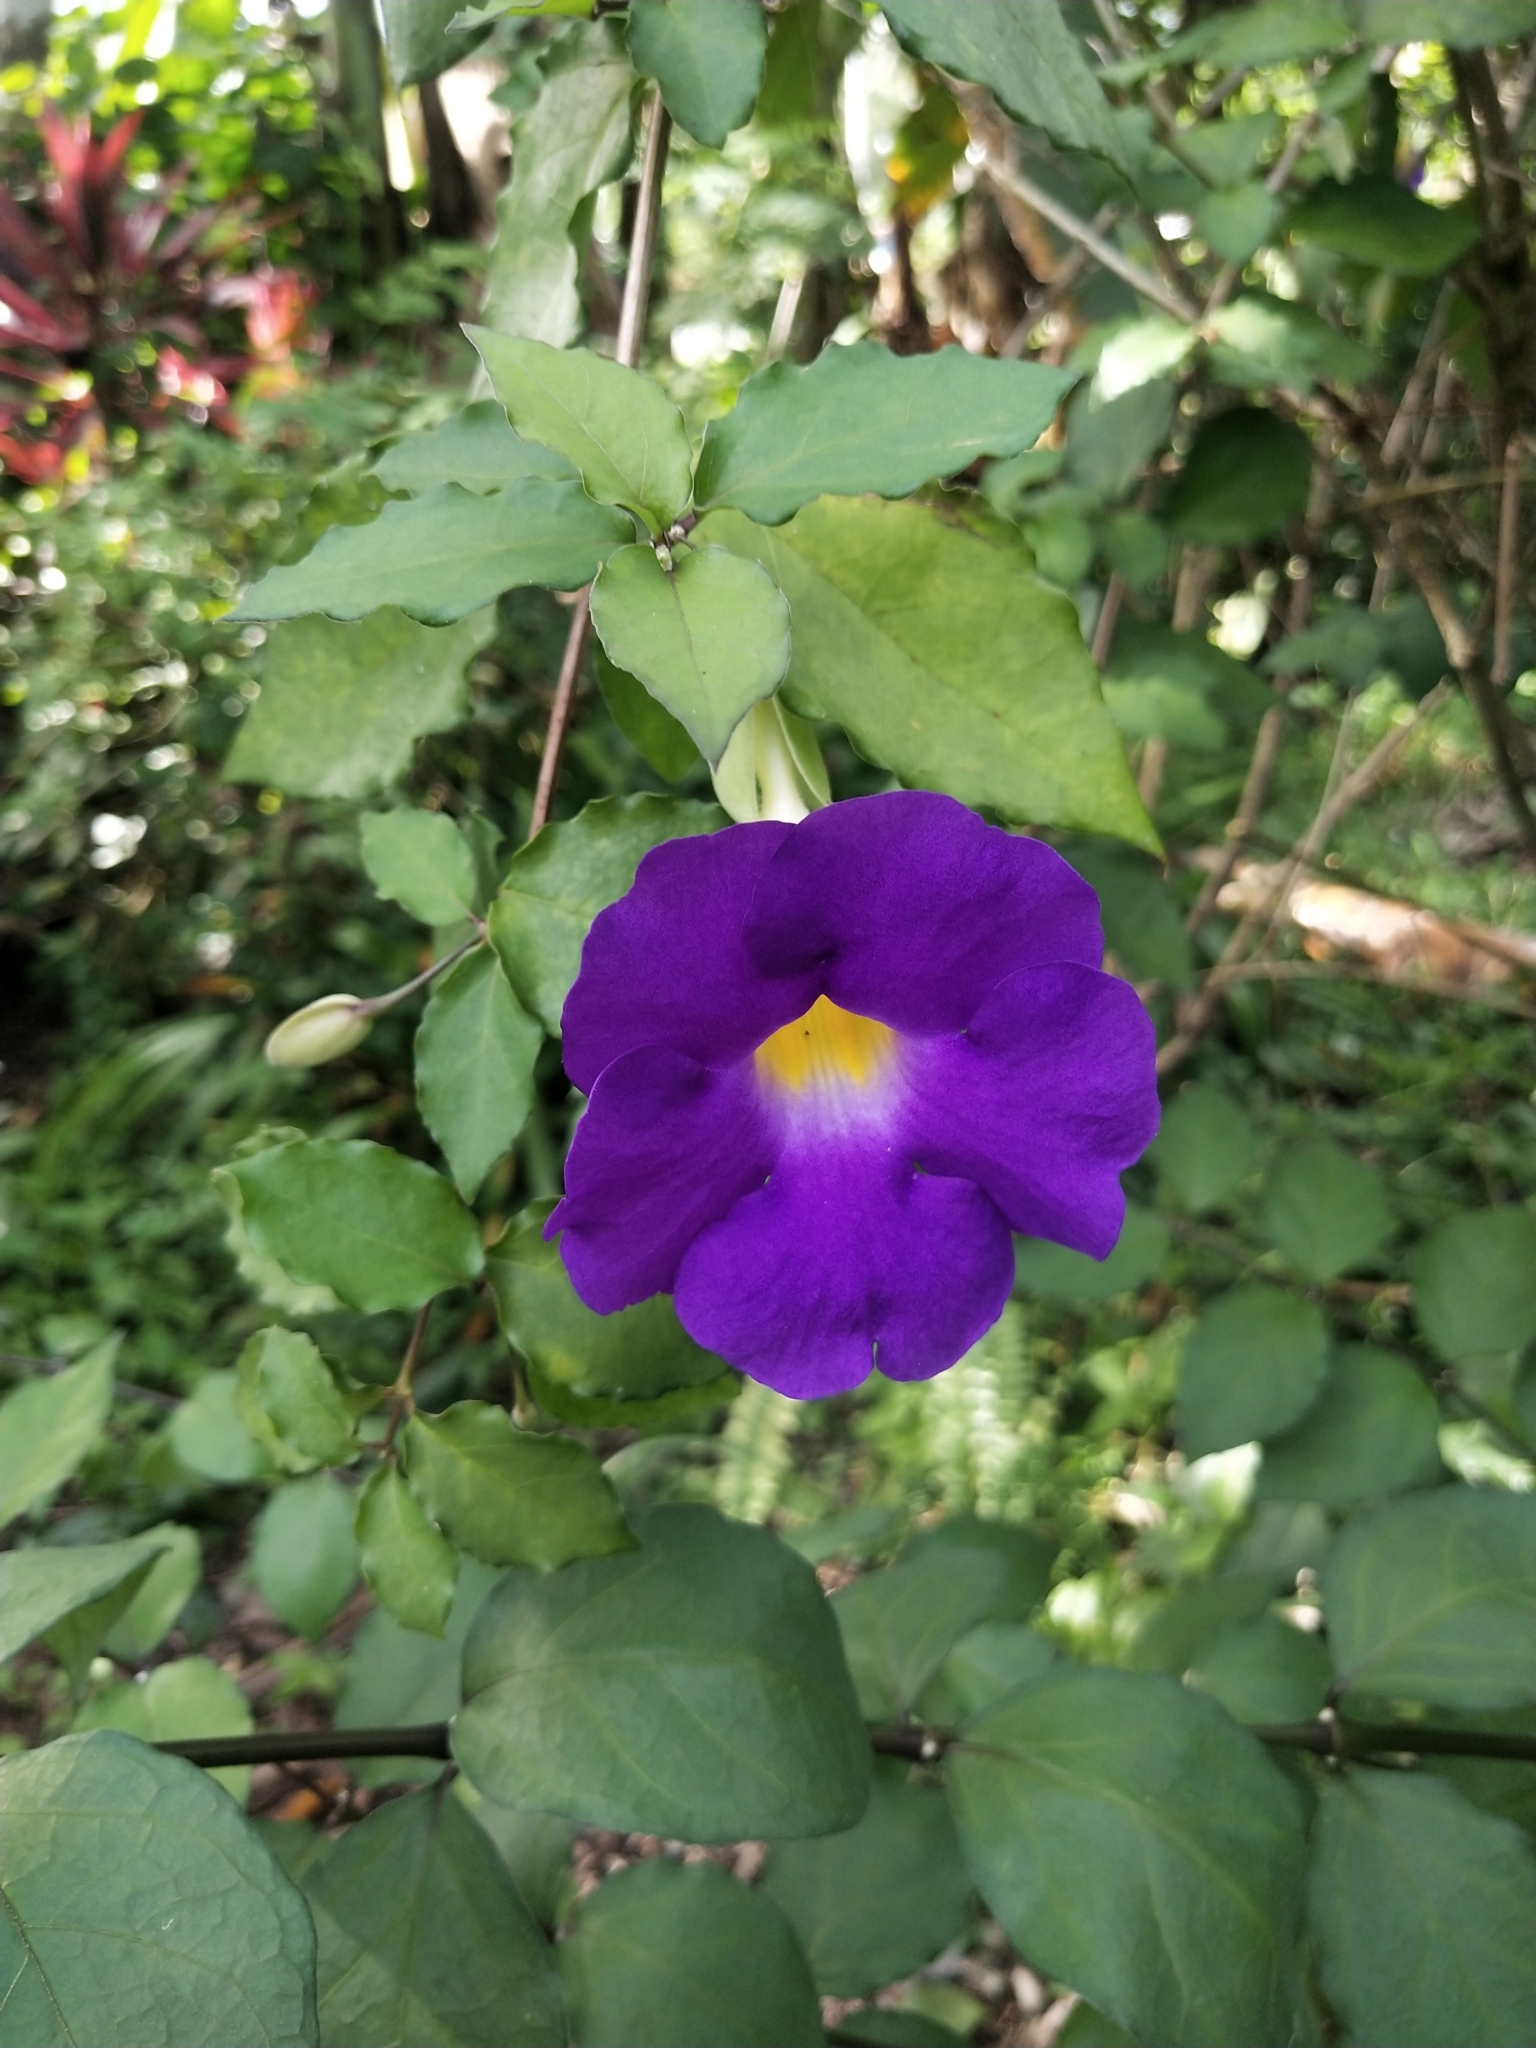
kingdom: Plantae
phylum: Tracheophyta
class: Magnoliopsida
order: Lamiales
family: Acanthaceae
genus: Thunbergia
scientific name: Thunbergia erecta
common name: Bush clockvine
